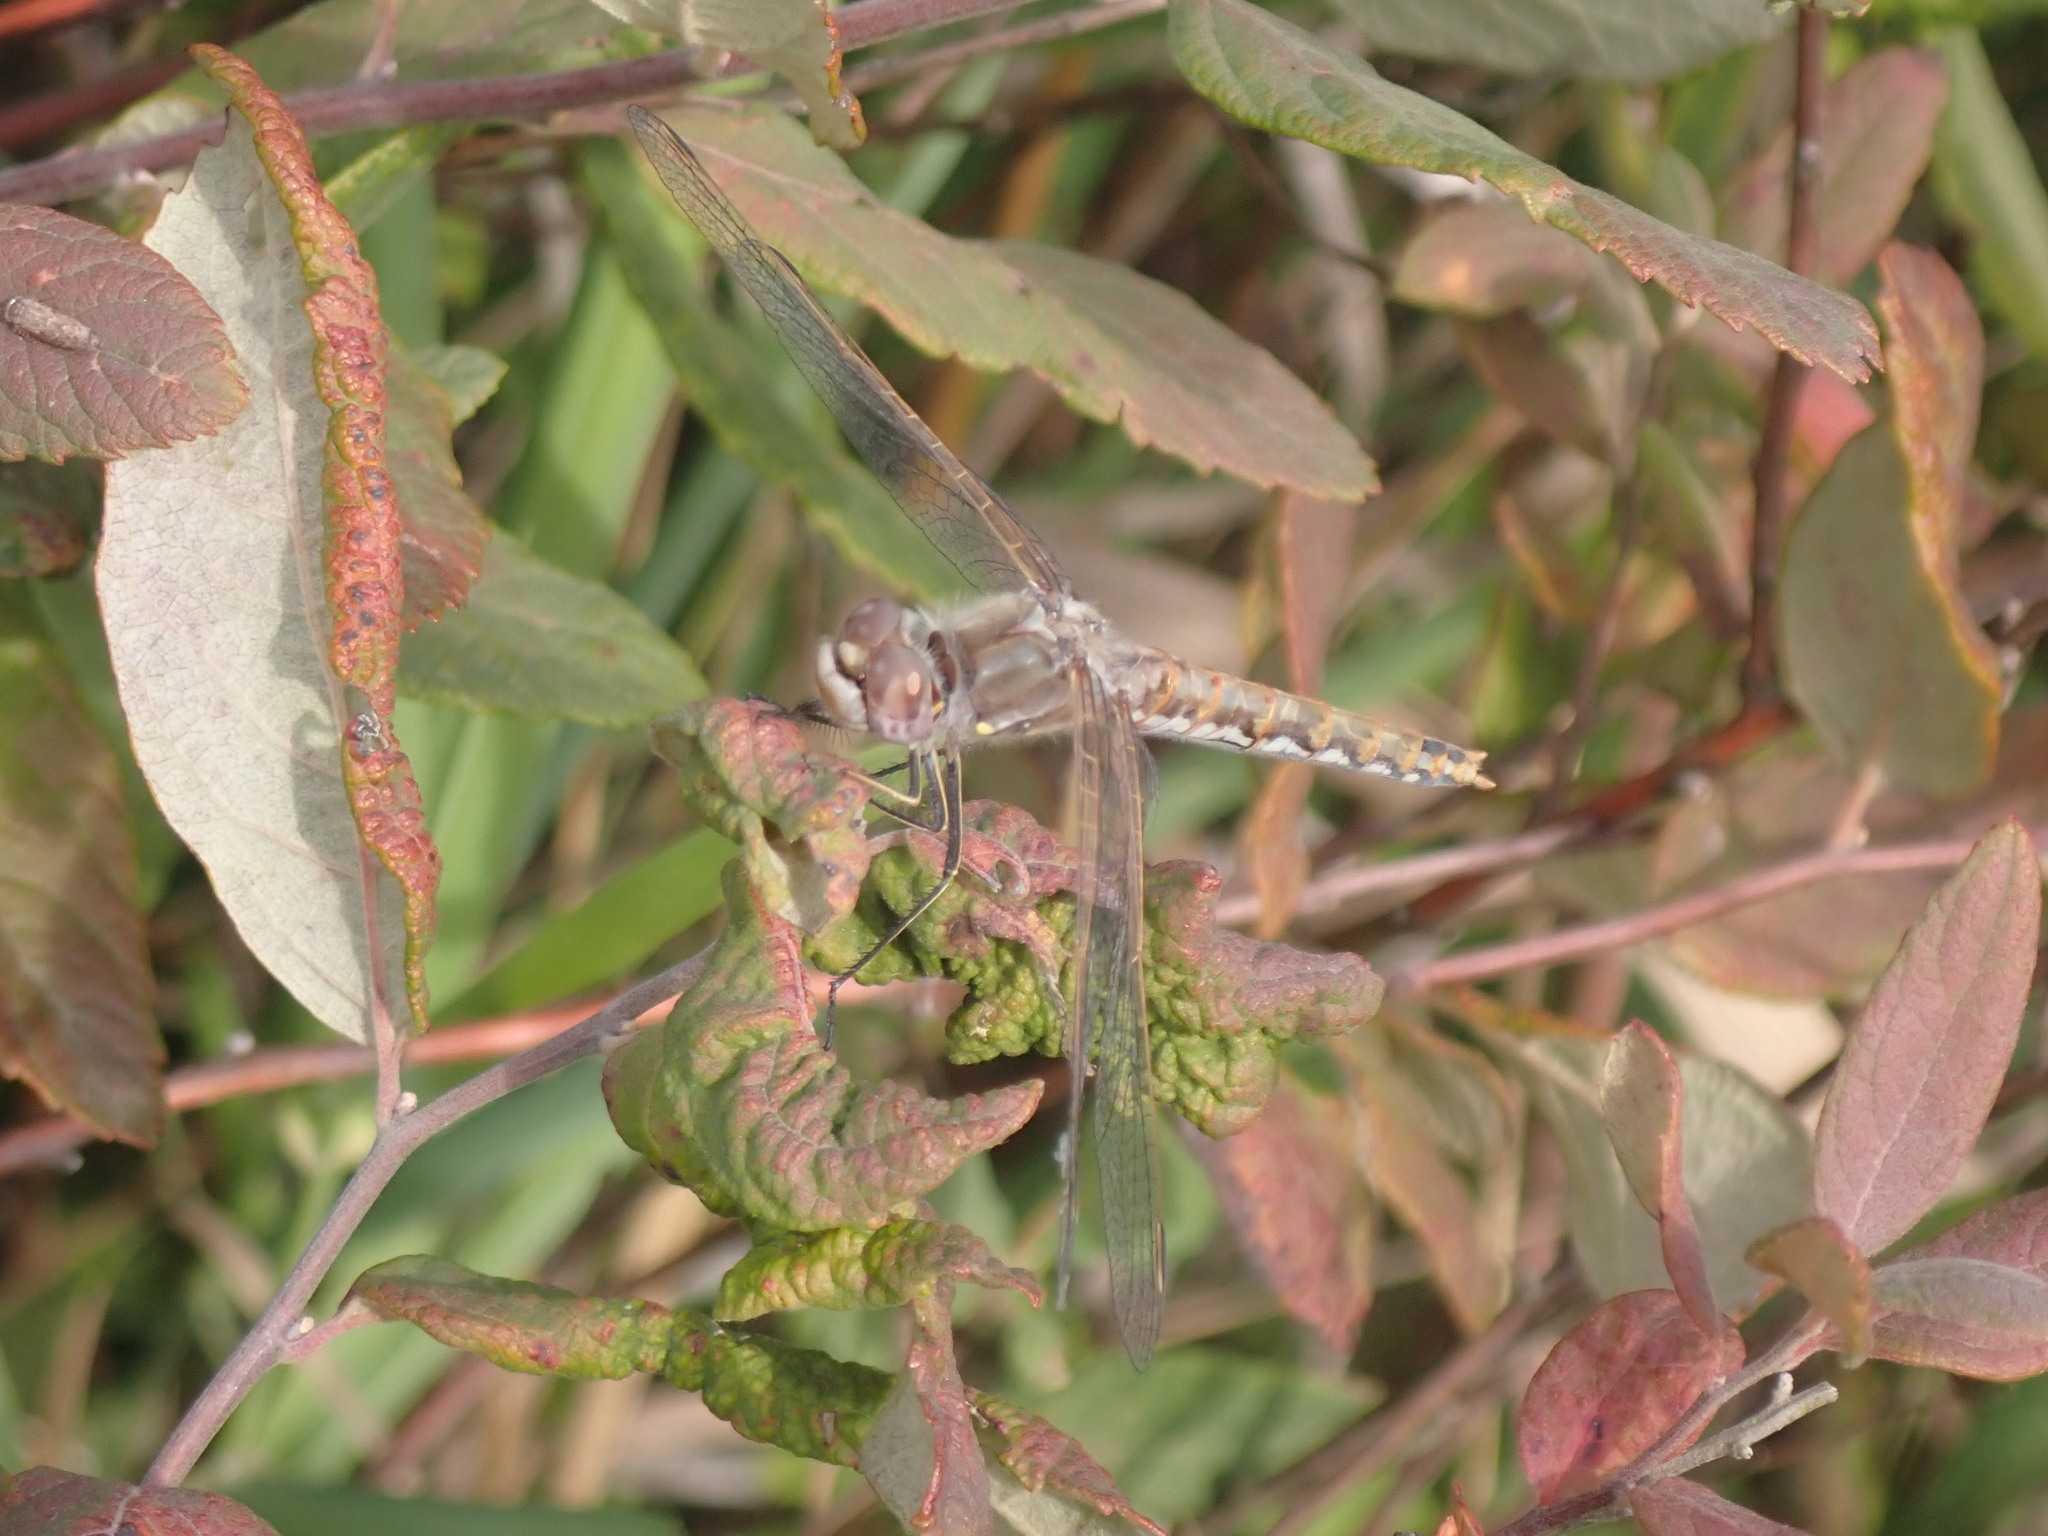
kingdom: Animalia
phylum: Arthropoda
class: Insecta
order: Odonata
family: Libellulidae
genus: Sympetrum
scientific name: Sympetrum corruptum
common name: Variegated meadowhawk
